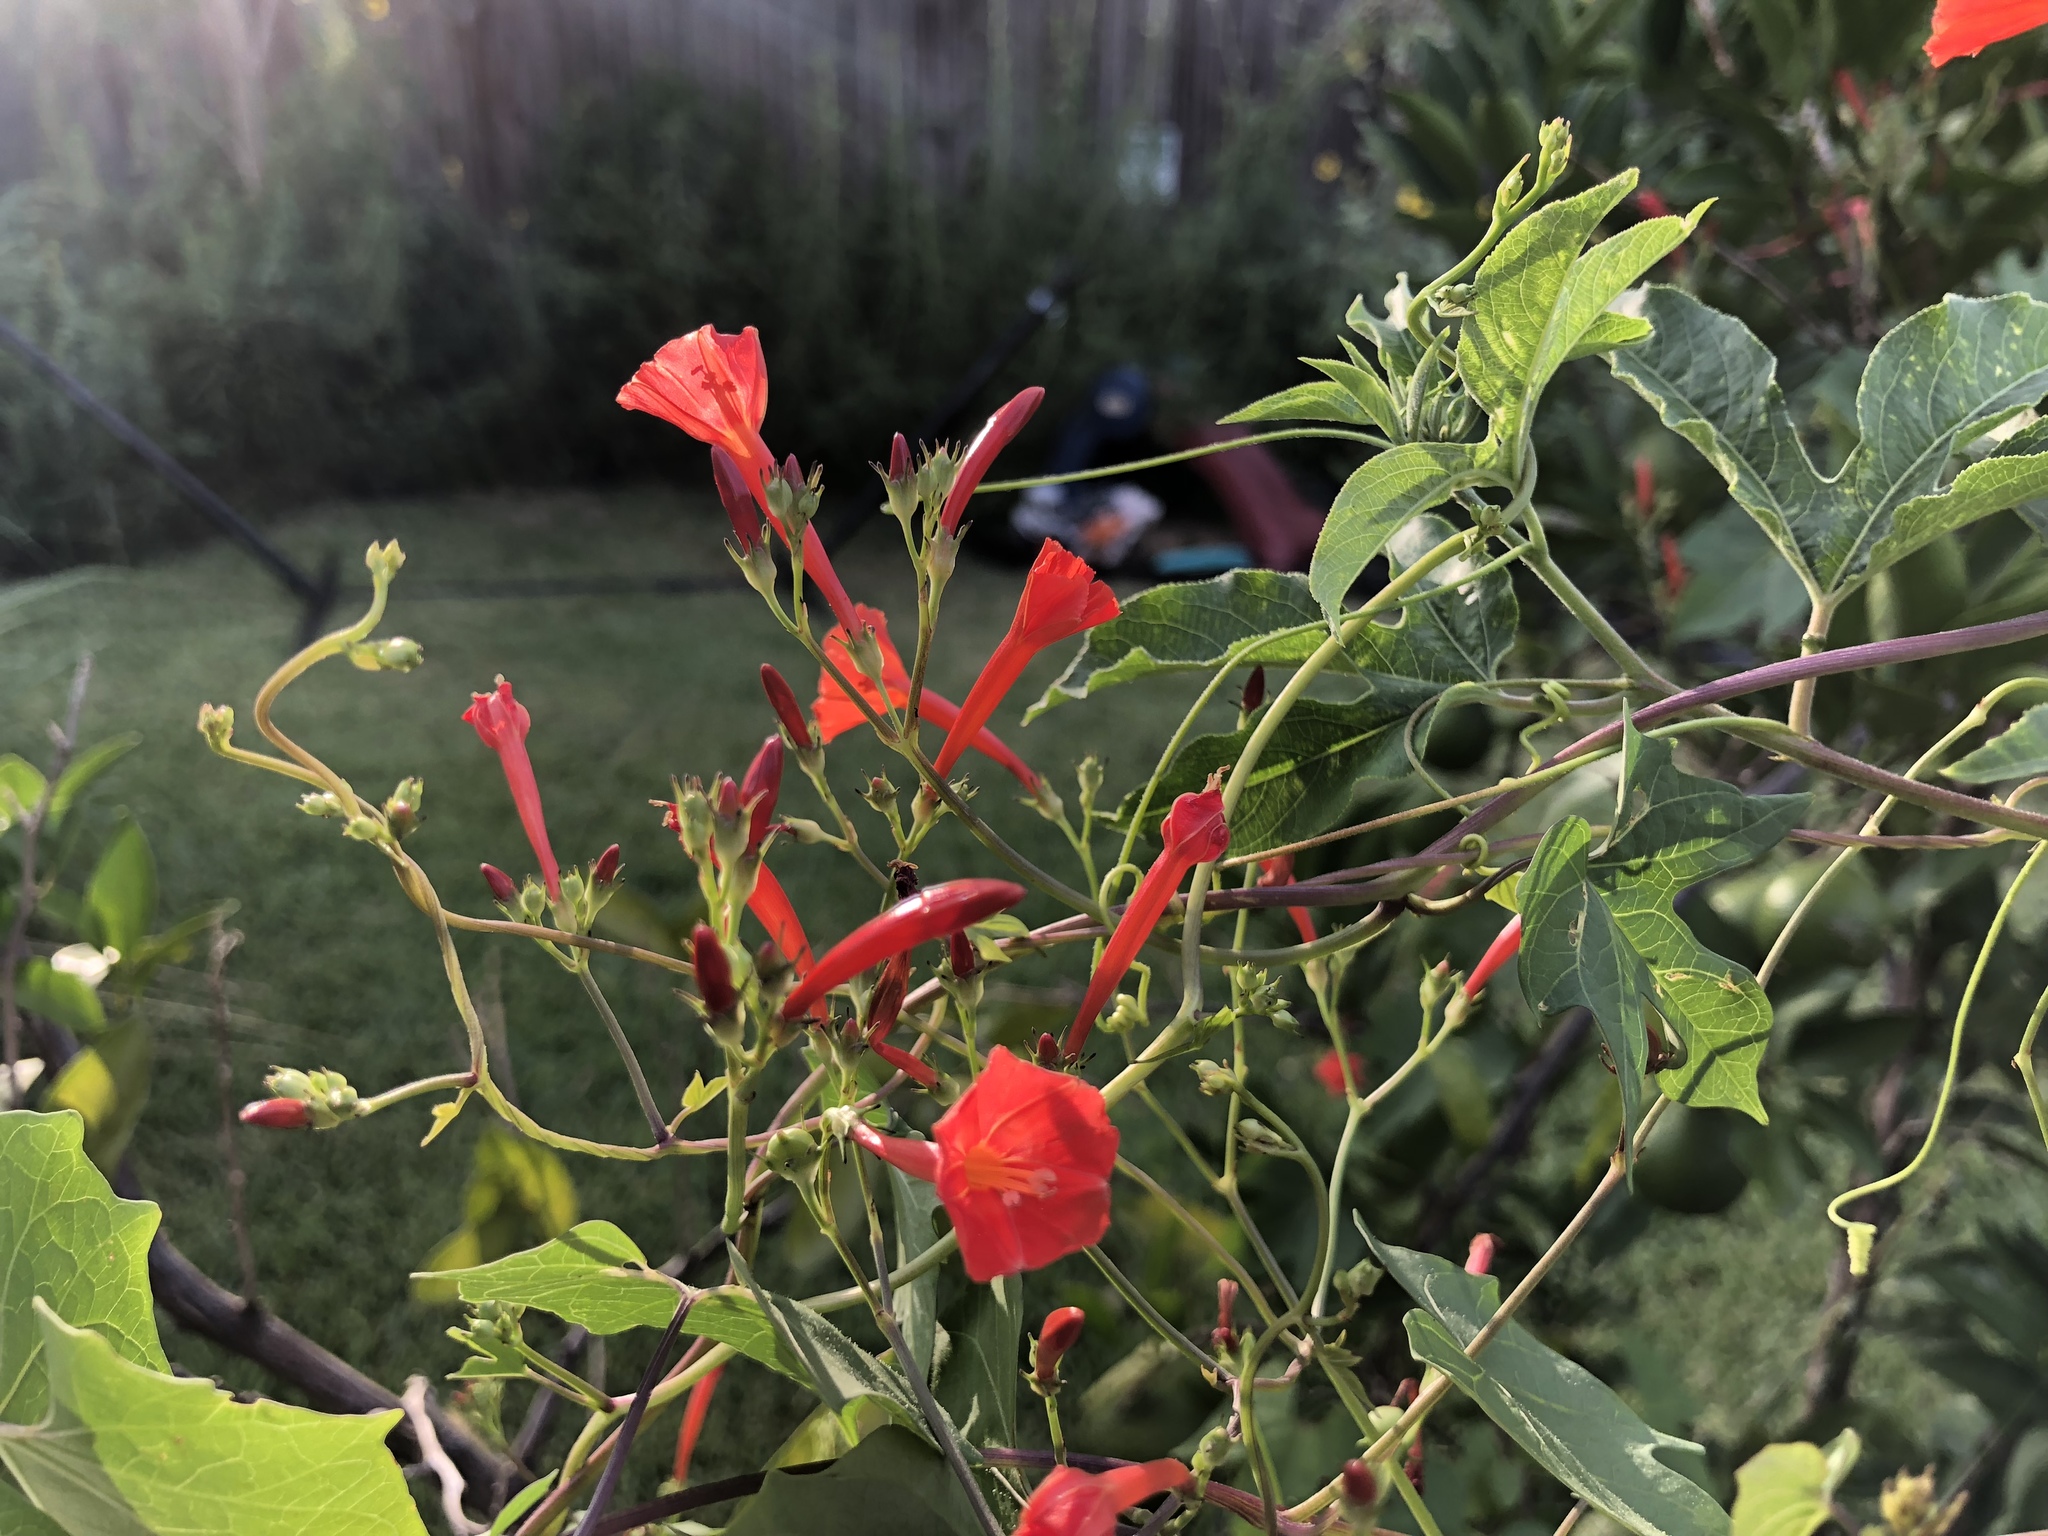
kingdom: Plantae
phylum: Tracheophyta
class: Magnoliopsida
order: Solanales
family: Convolvulaceae
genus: Ipomoea
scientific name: Ipomoea hederifolia
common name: Ivy-leaf morning-glory
